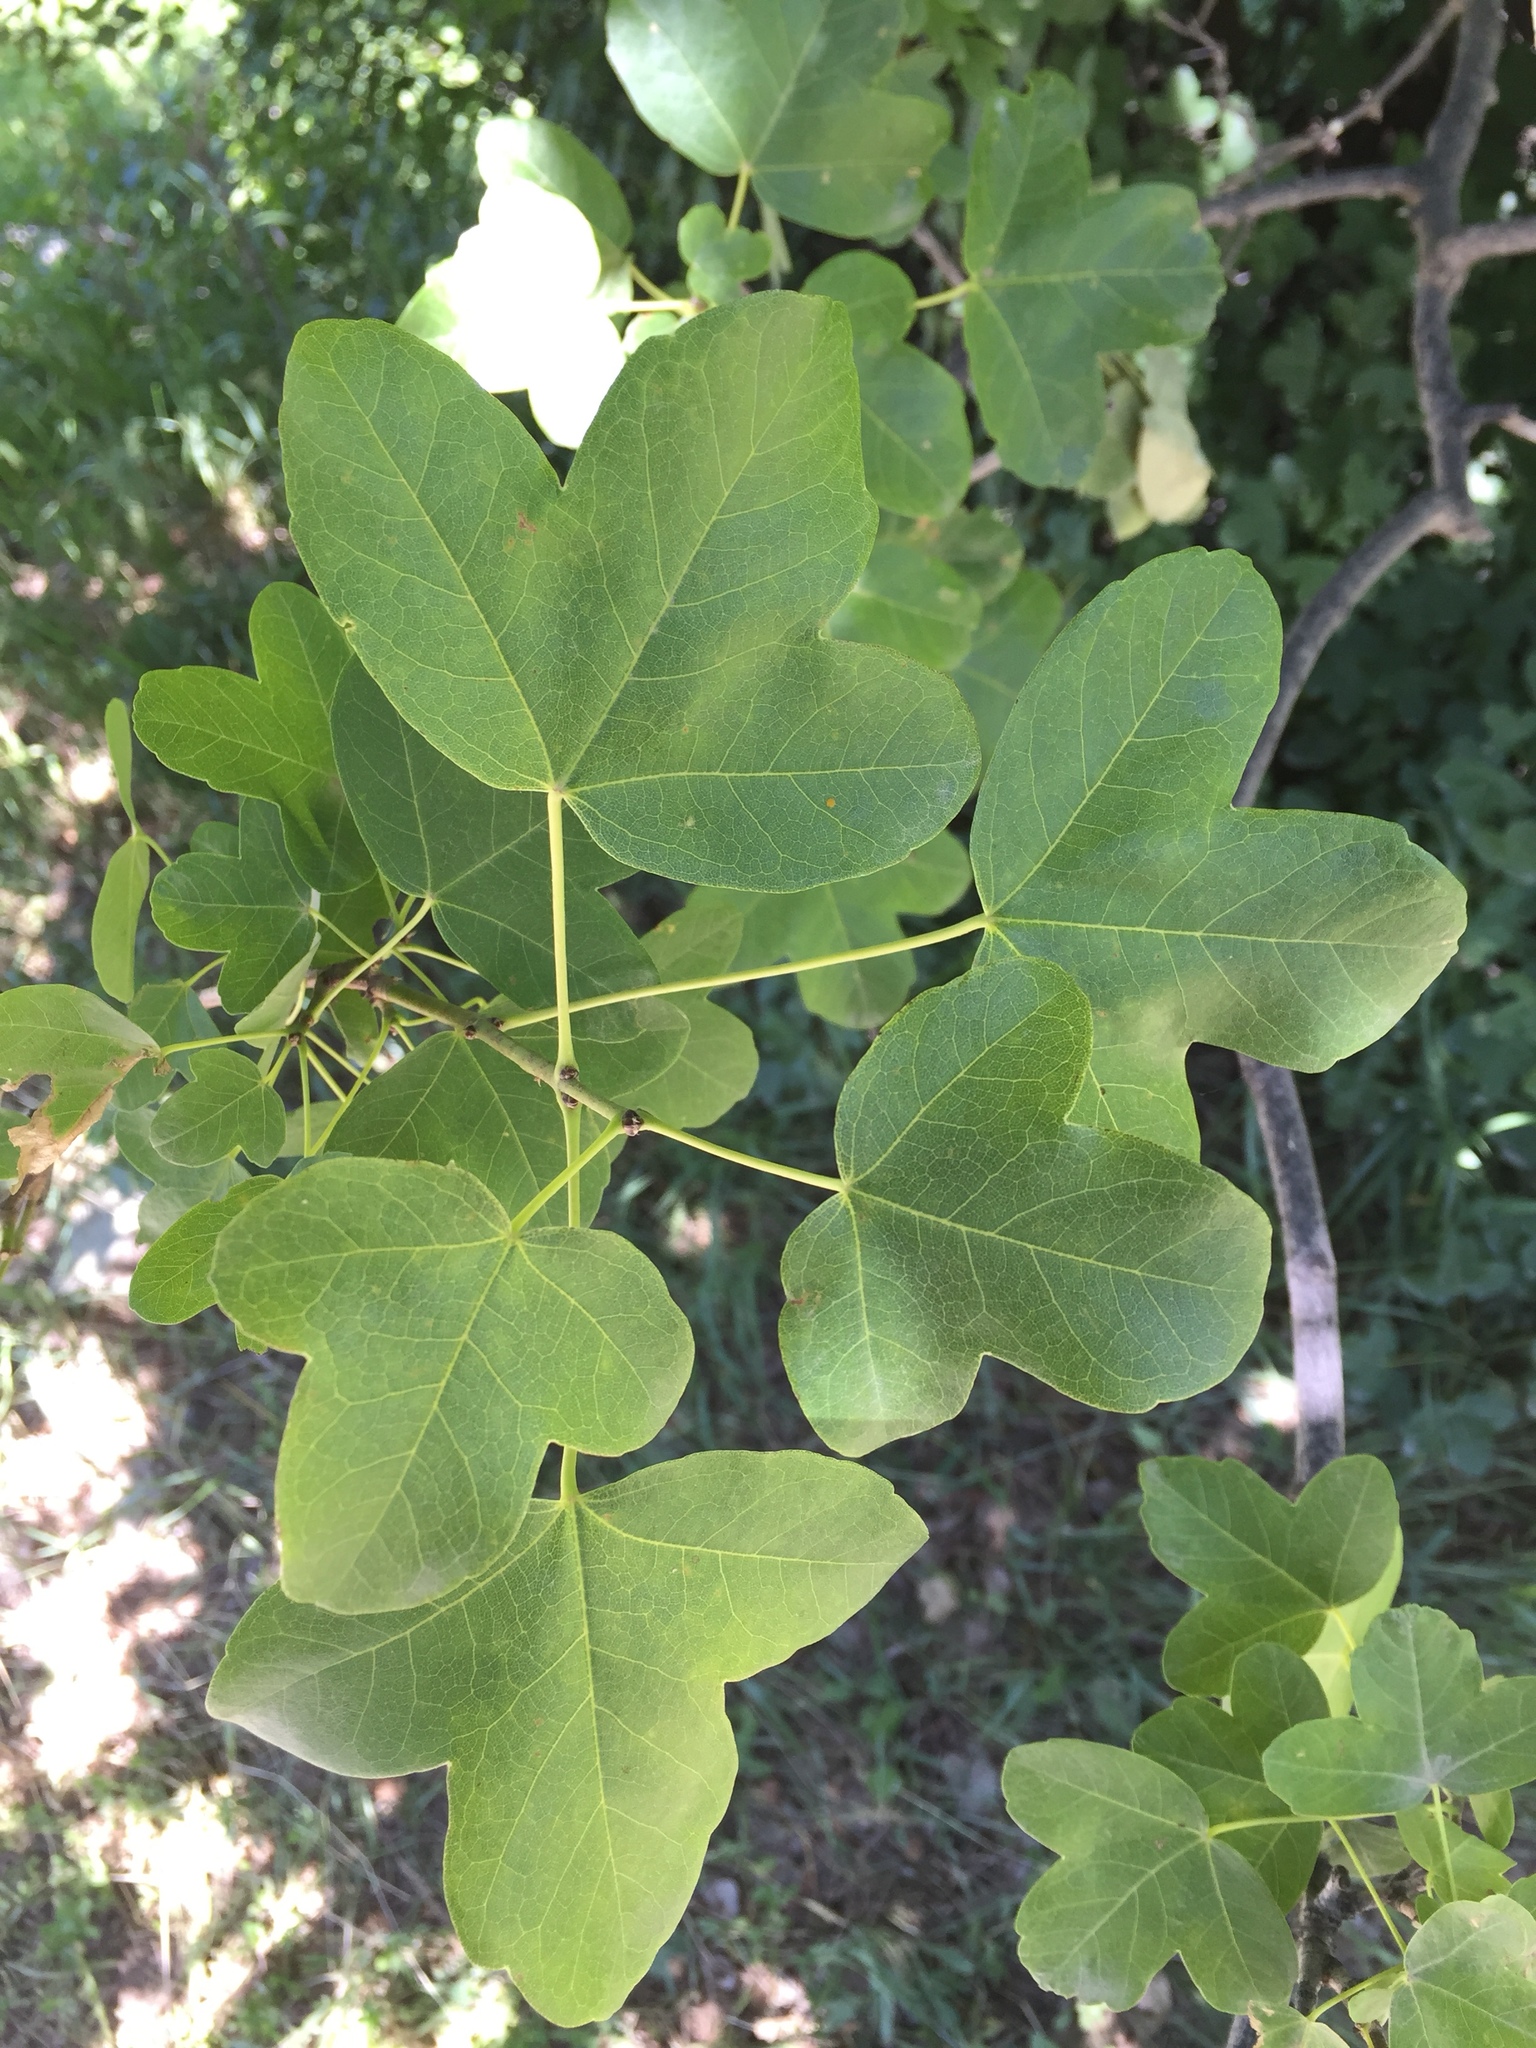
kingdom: Plantae
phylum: Tracheophyta
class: Magnoliopsida
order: Sapindales
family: Sapindaceae
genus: Acer
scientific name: Acer monspessulanum
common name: Montpellier maple
